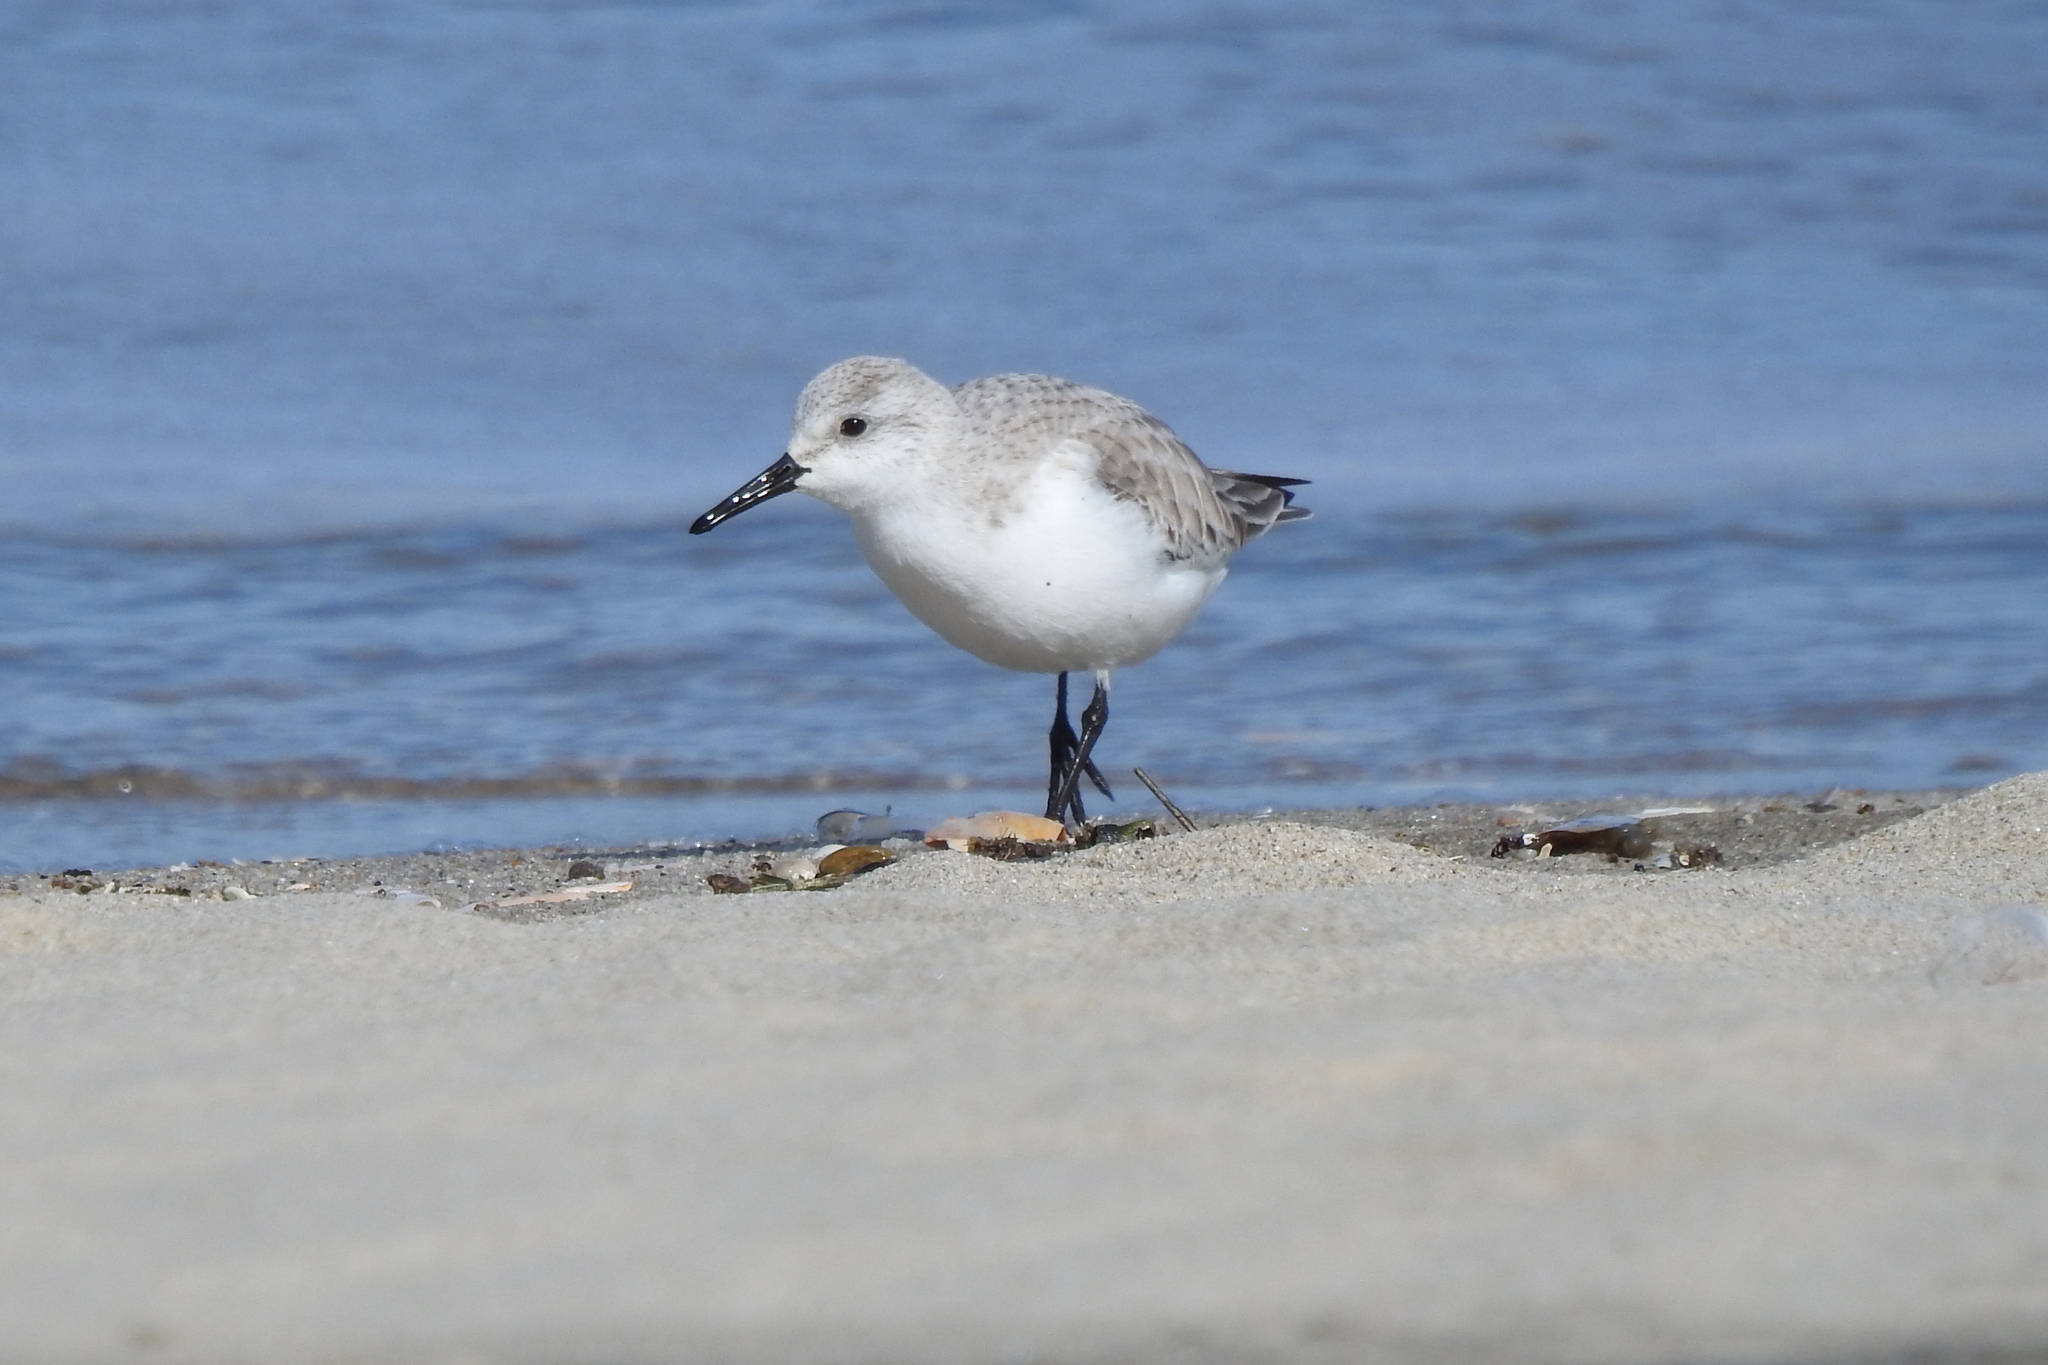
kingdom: Animalia
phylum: Chordata
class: Aves
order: Charadriiformes
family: Scolopacidae
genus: Calidris
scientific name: Calidris alba
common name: Sanderling
